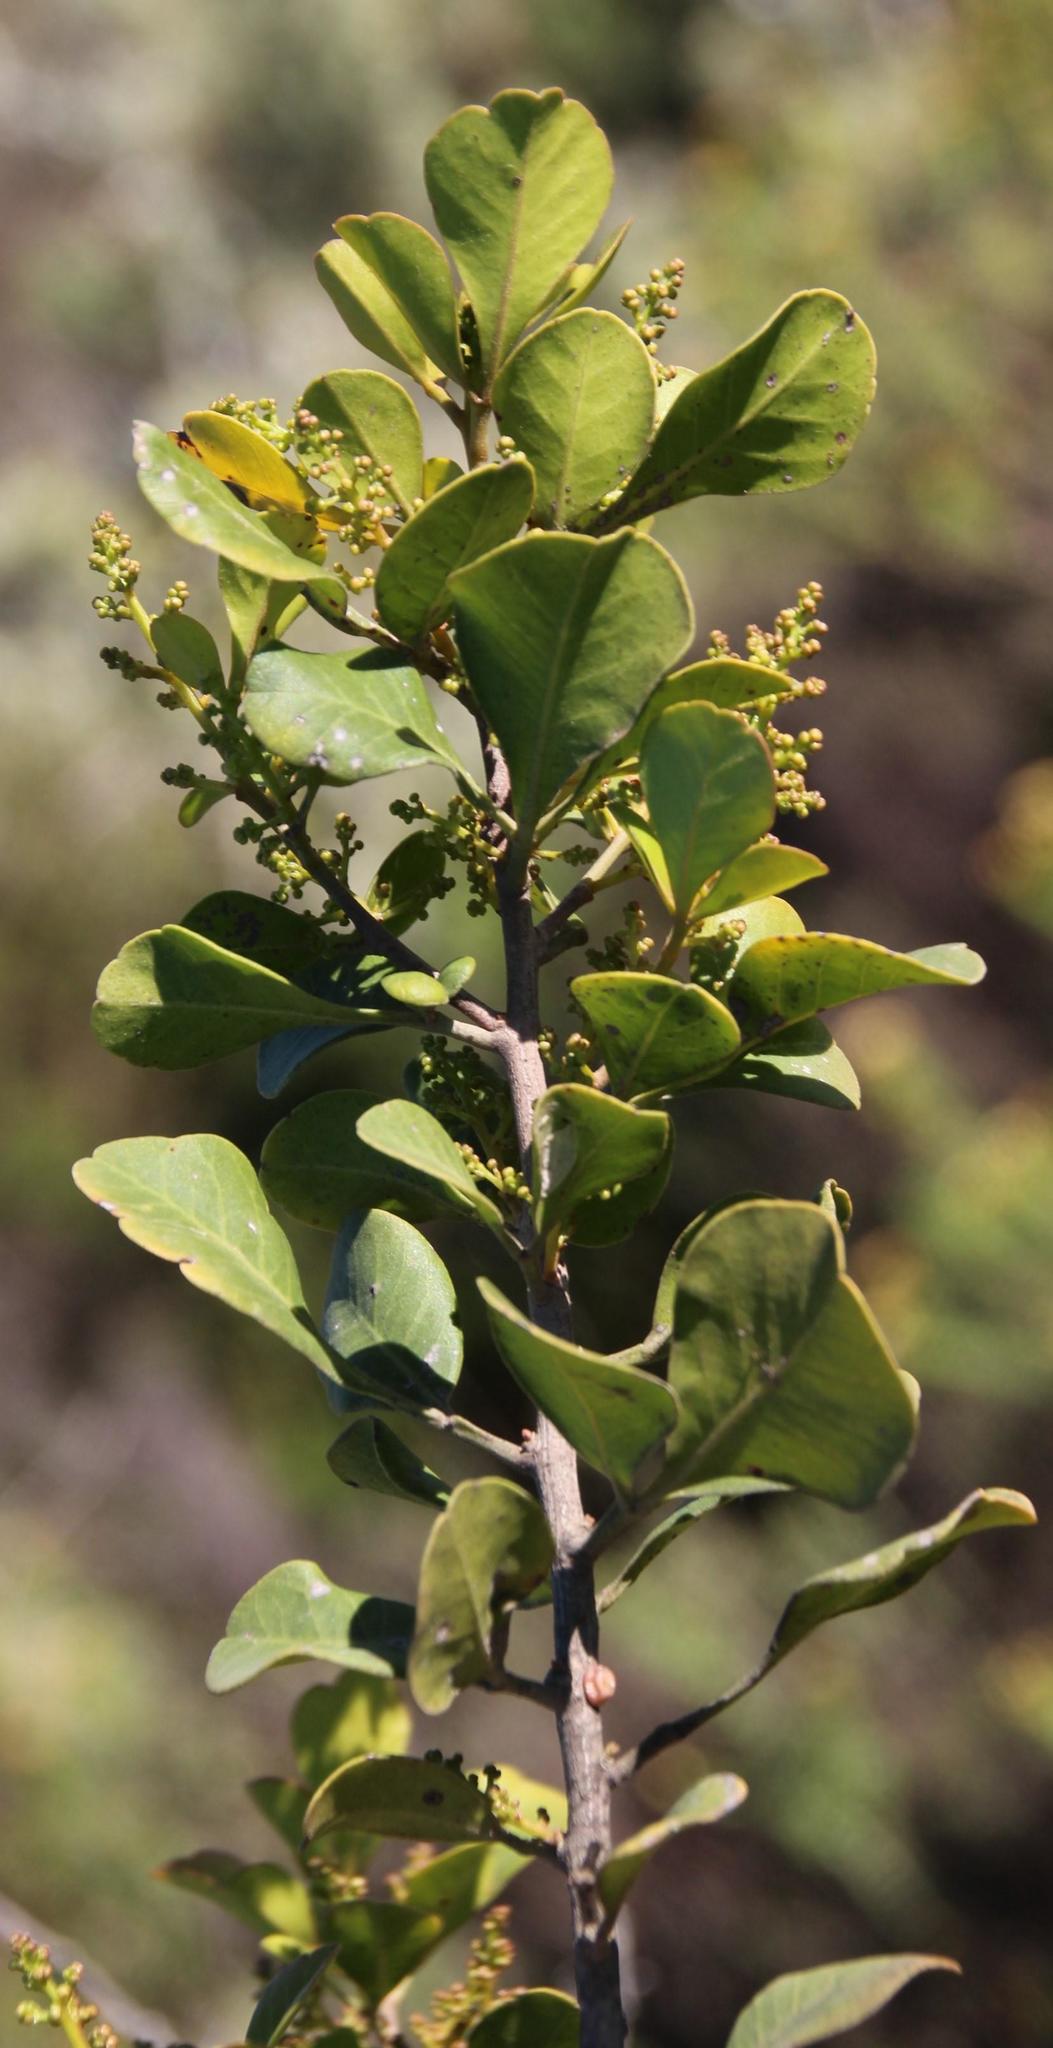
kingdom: Plantae
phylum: Tracheophyta
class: Magnoliopsida
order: Sapindales
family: Anacardiaceae
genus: Searsia
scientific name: Searsia lucida
